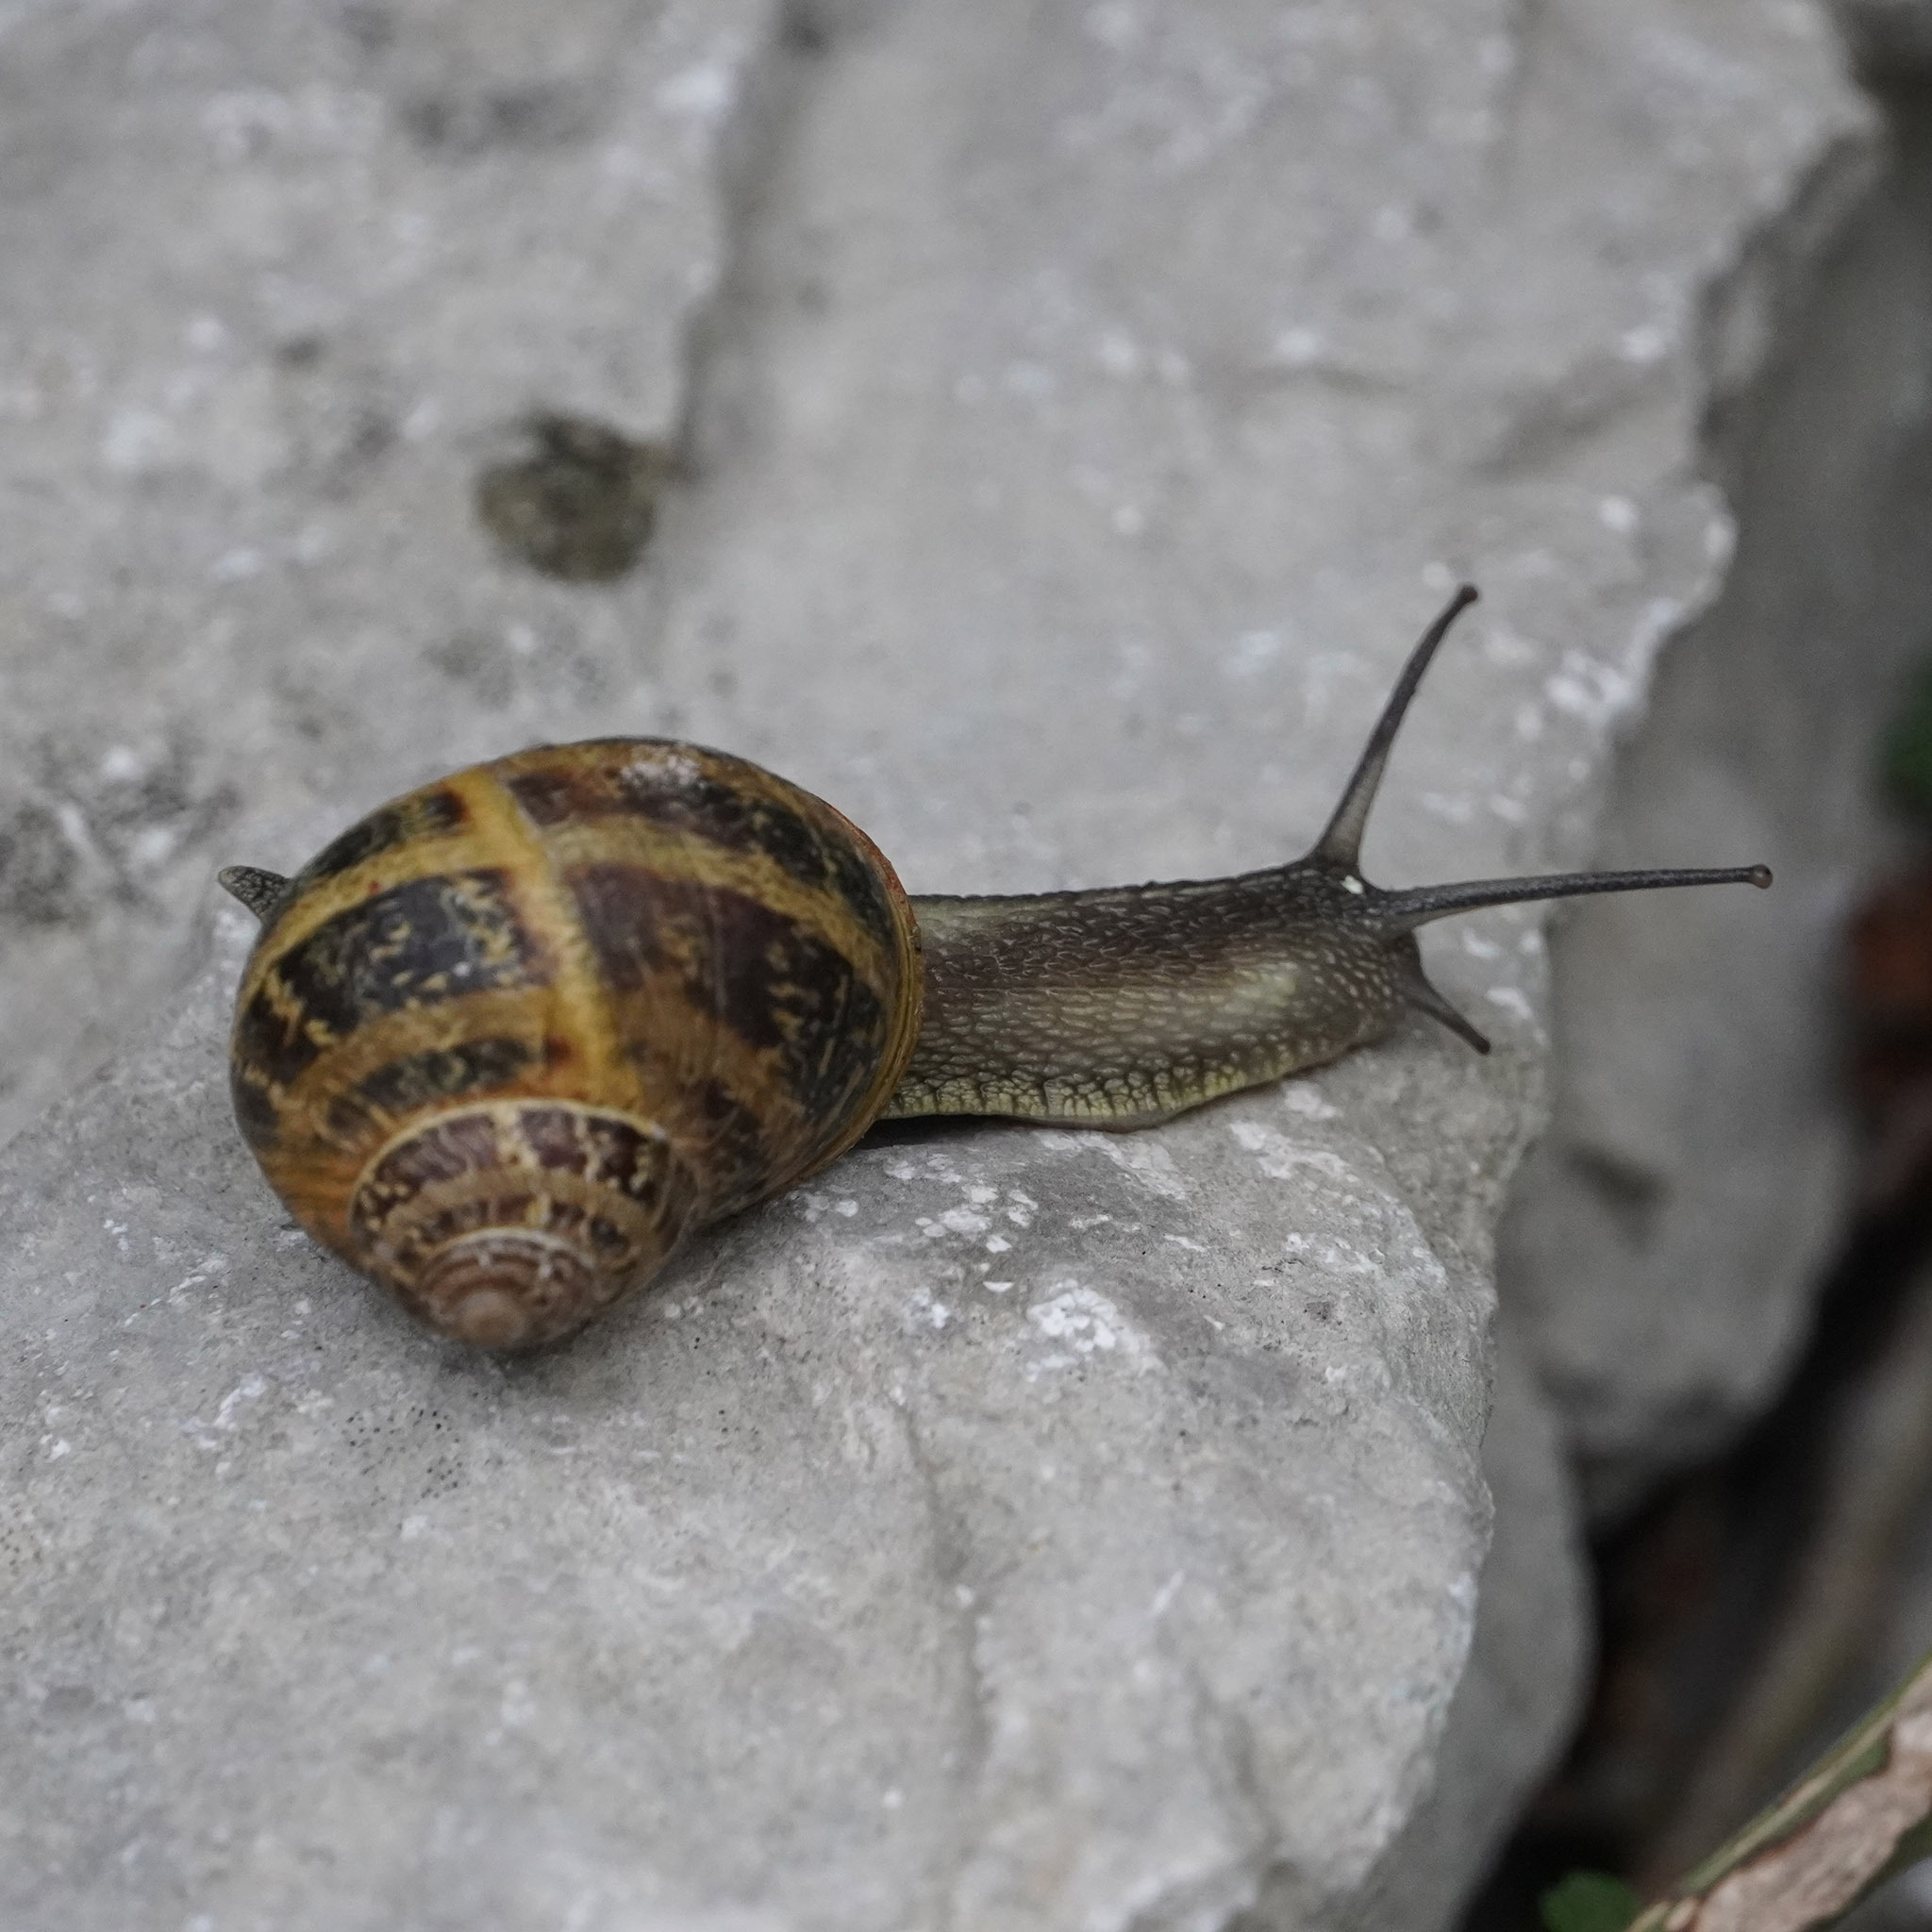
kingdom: Animalia
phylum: Mollusca
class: Gastropoda
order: Stylommatophora
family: Helicidae
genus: Cornu
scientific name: Cornu aspersum
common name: Brown garden snail
